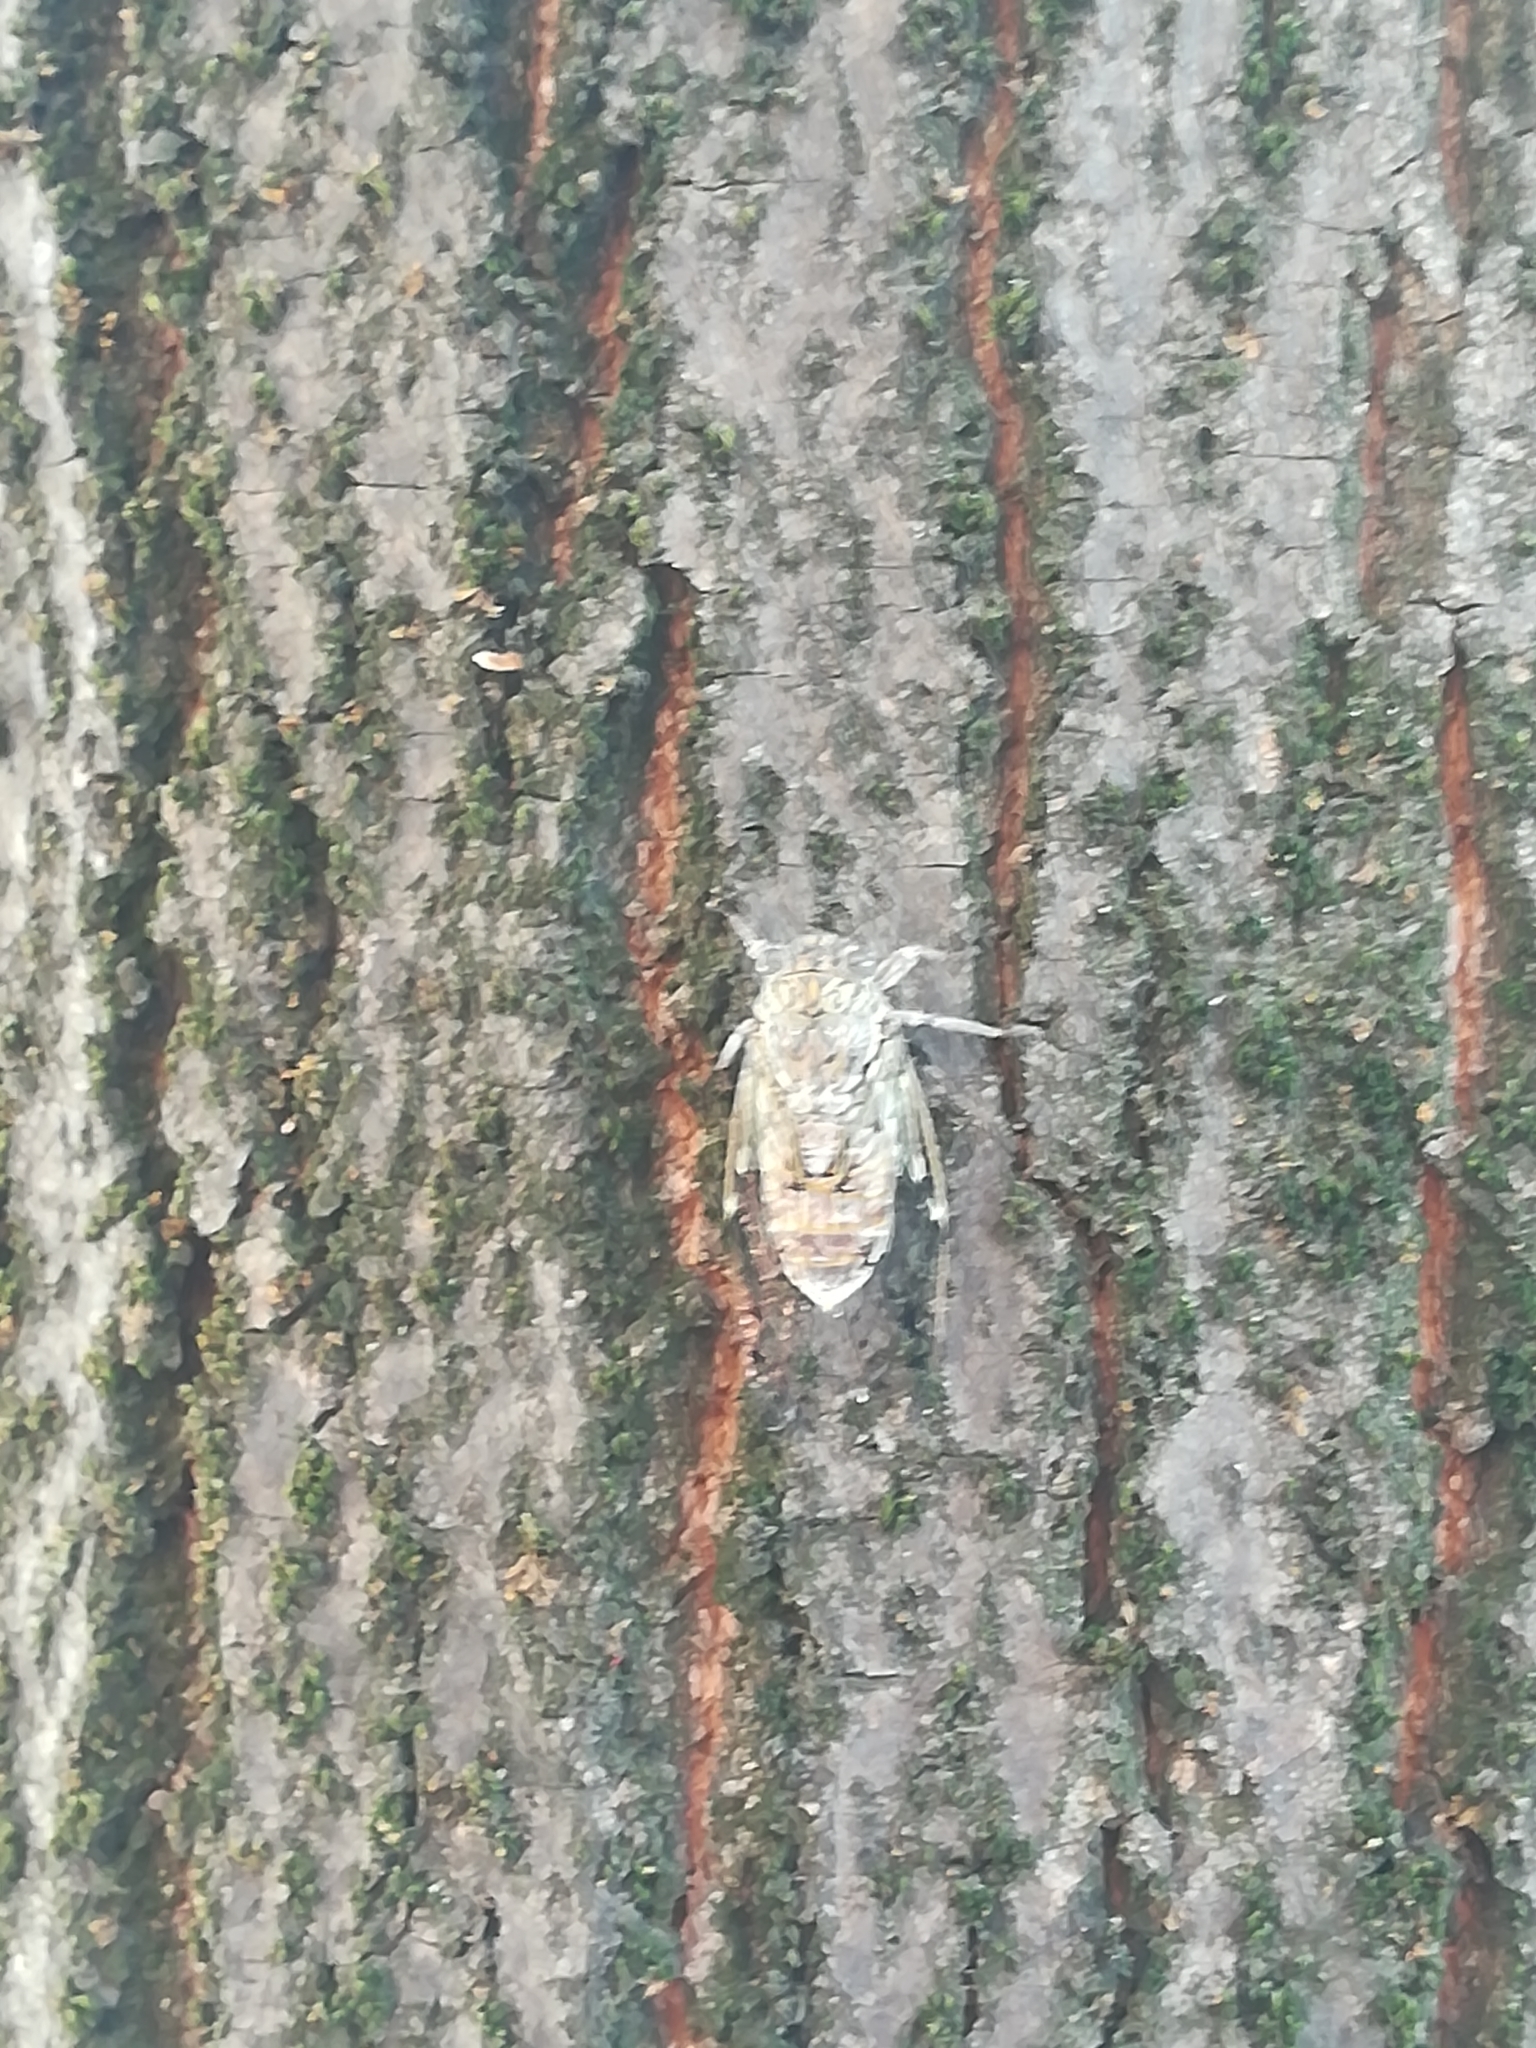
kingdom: Animalia
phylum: Arthropoda
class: Insecta
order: Hemiptera
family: Cicadidae
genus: Cicada
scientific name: Cicada orni
